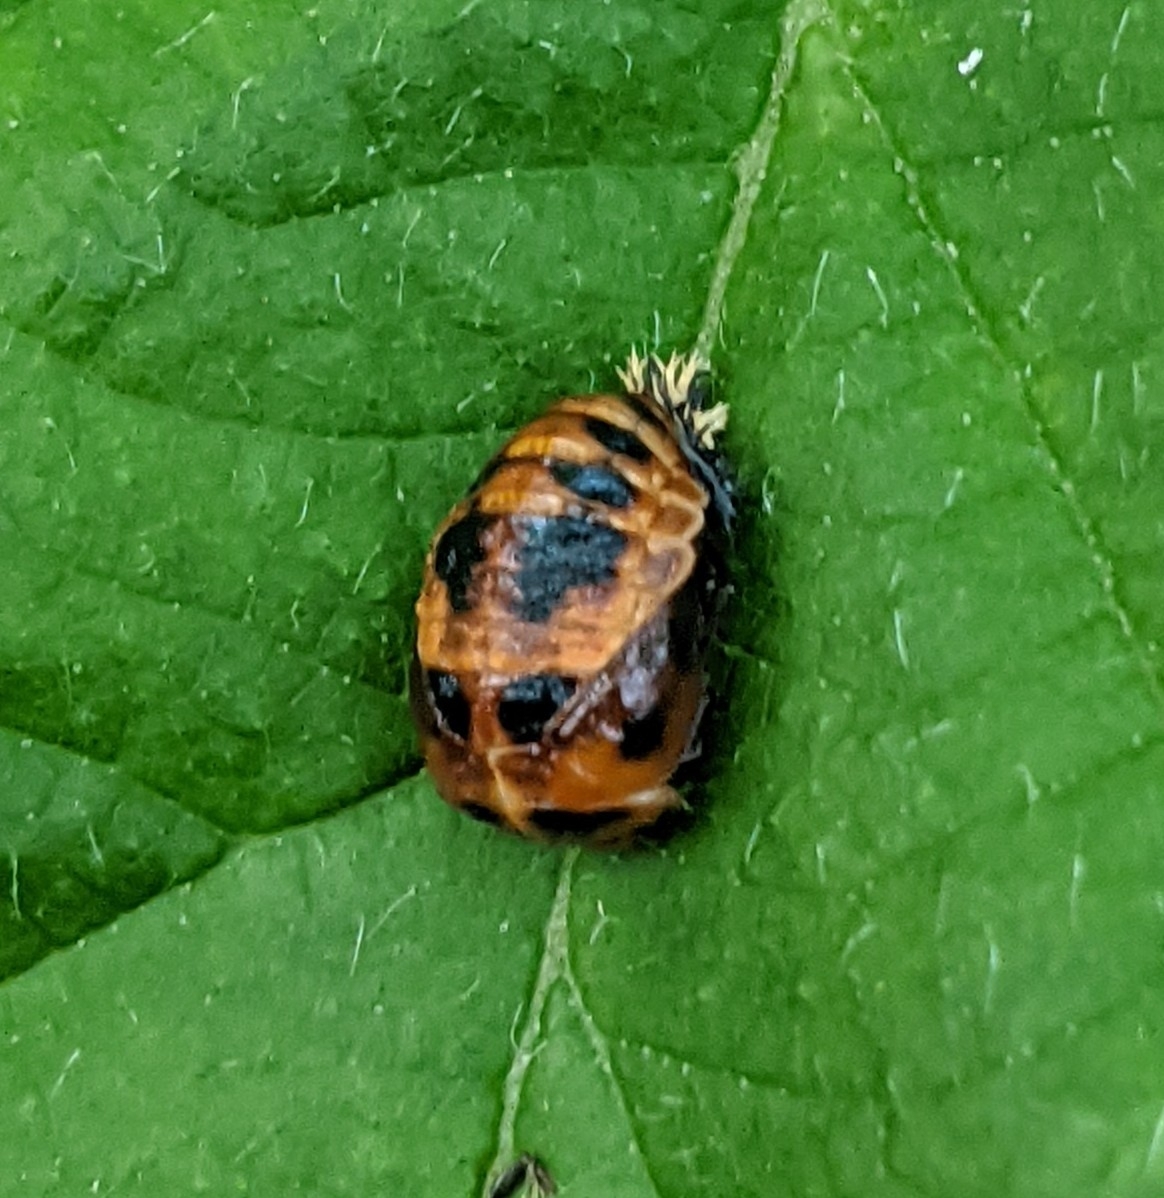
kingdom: Animalia
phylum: Arthropoda
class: Insecta
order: Coleoptera
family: Coccinellidae
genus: Harmonia
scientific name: Harmonia axyridis
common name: Harlequin ladybird
